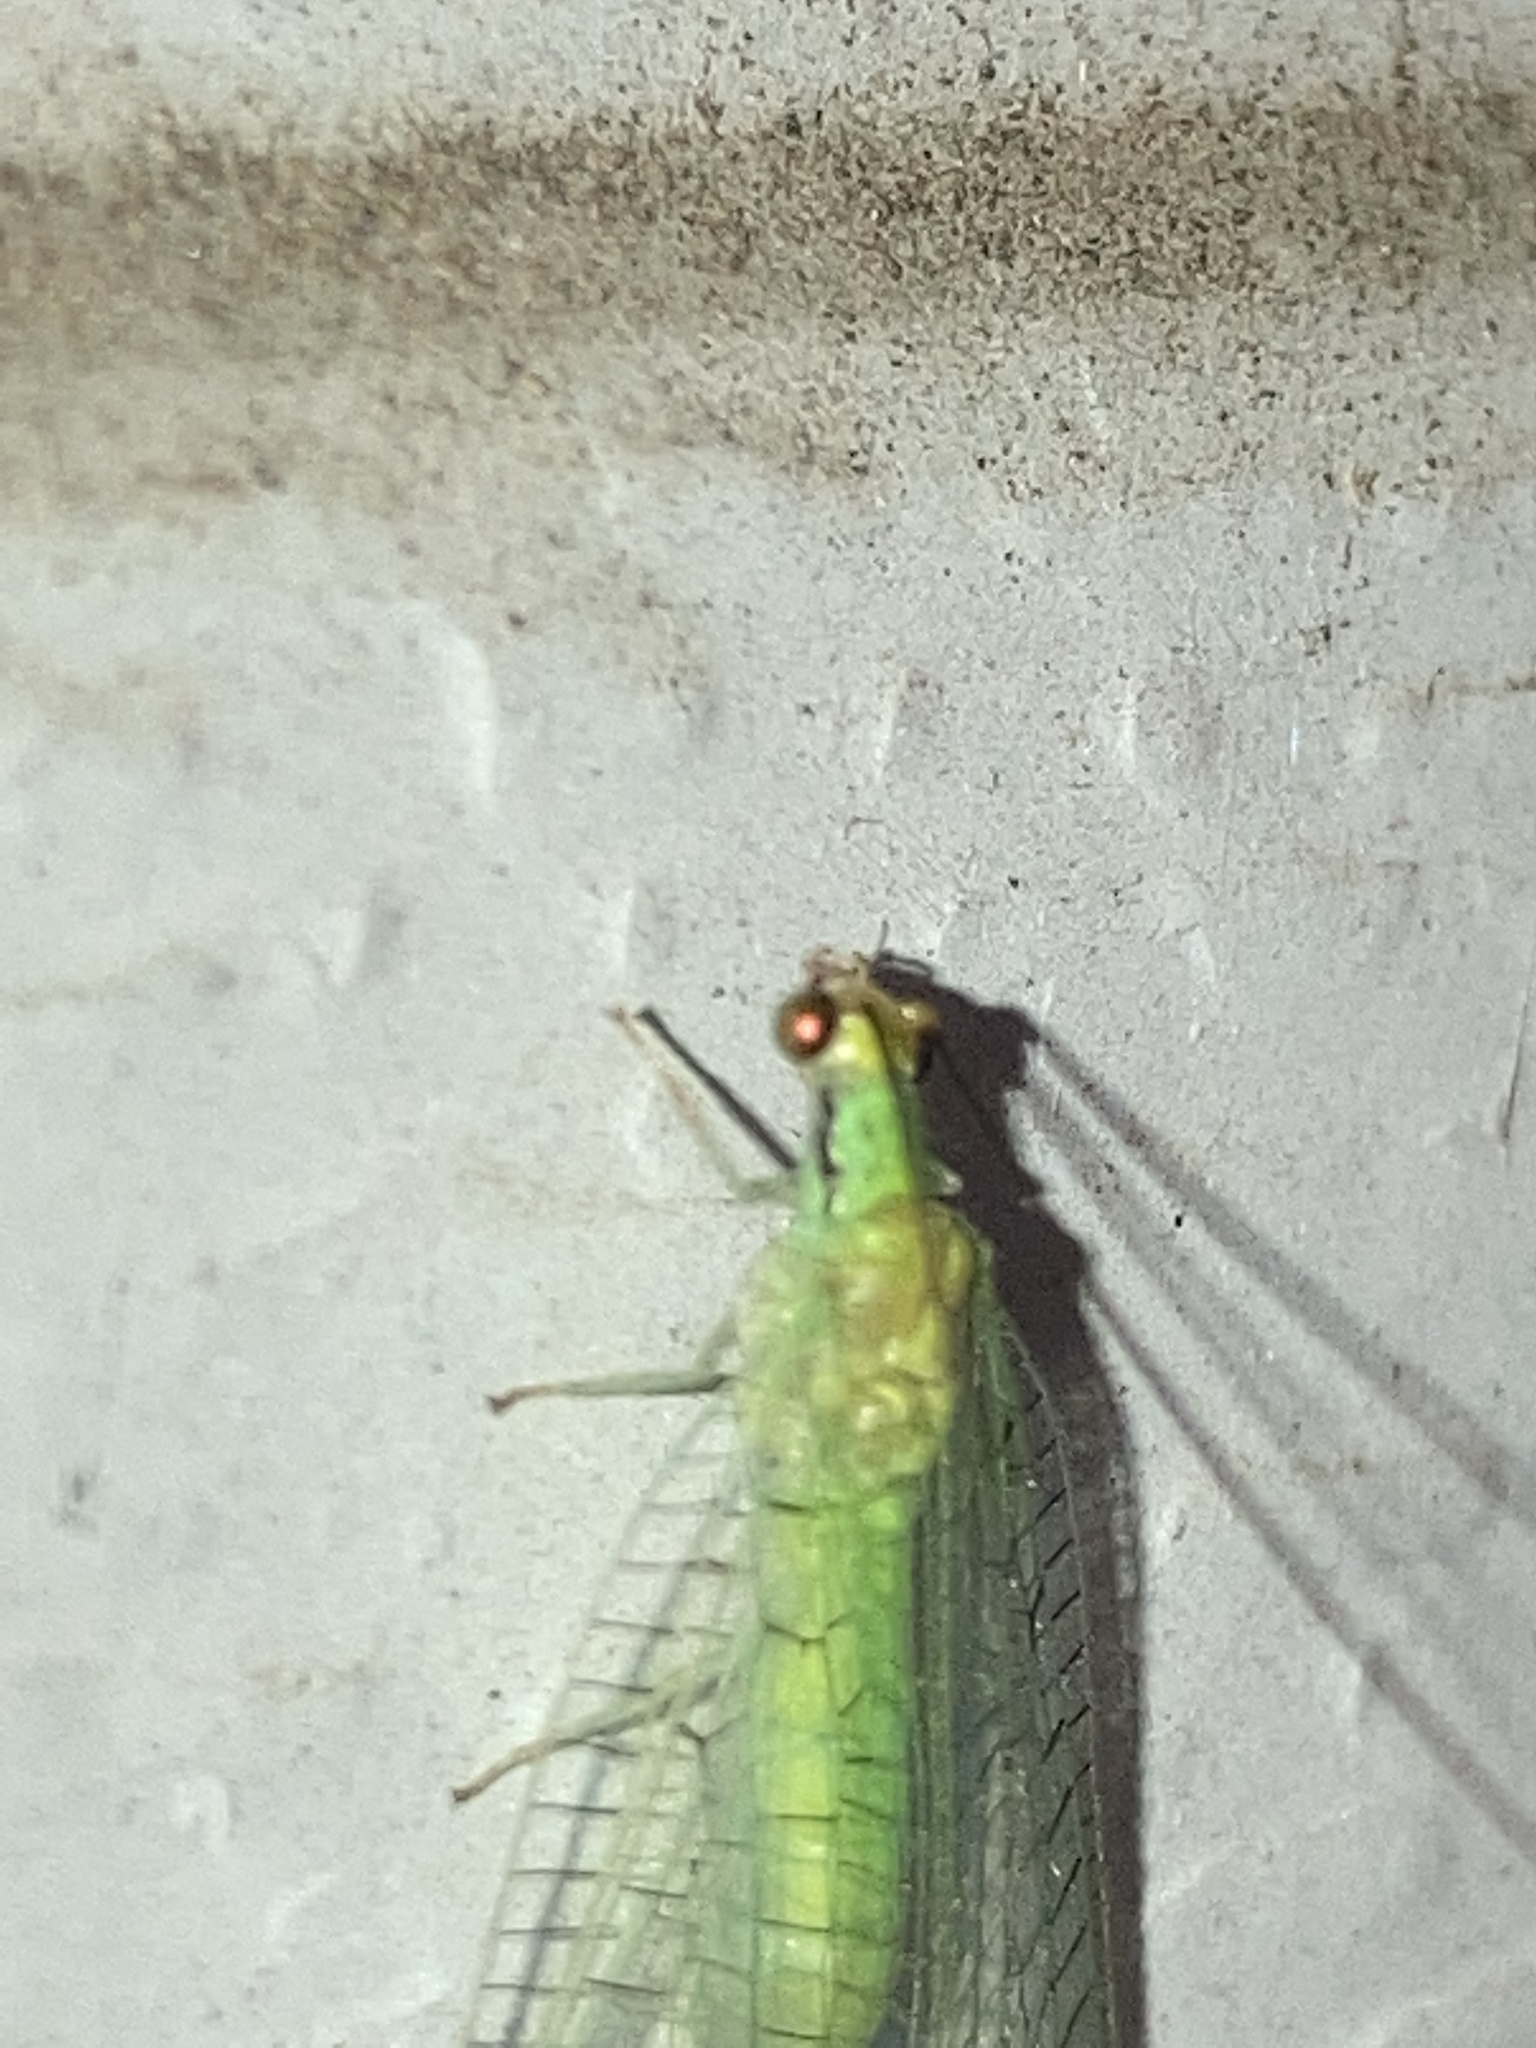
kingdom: Animalia
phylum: Arthropoda
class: Insecta
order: Neuroptera
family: Chrysopidae
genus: Leucochrysa
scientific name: Leucochrysa pavida
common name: Lichen-carrying green lacewing
